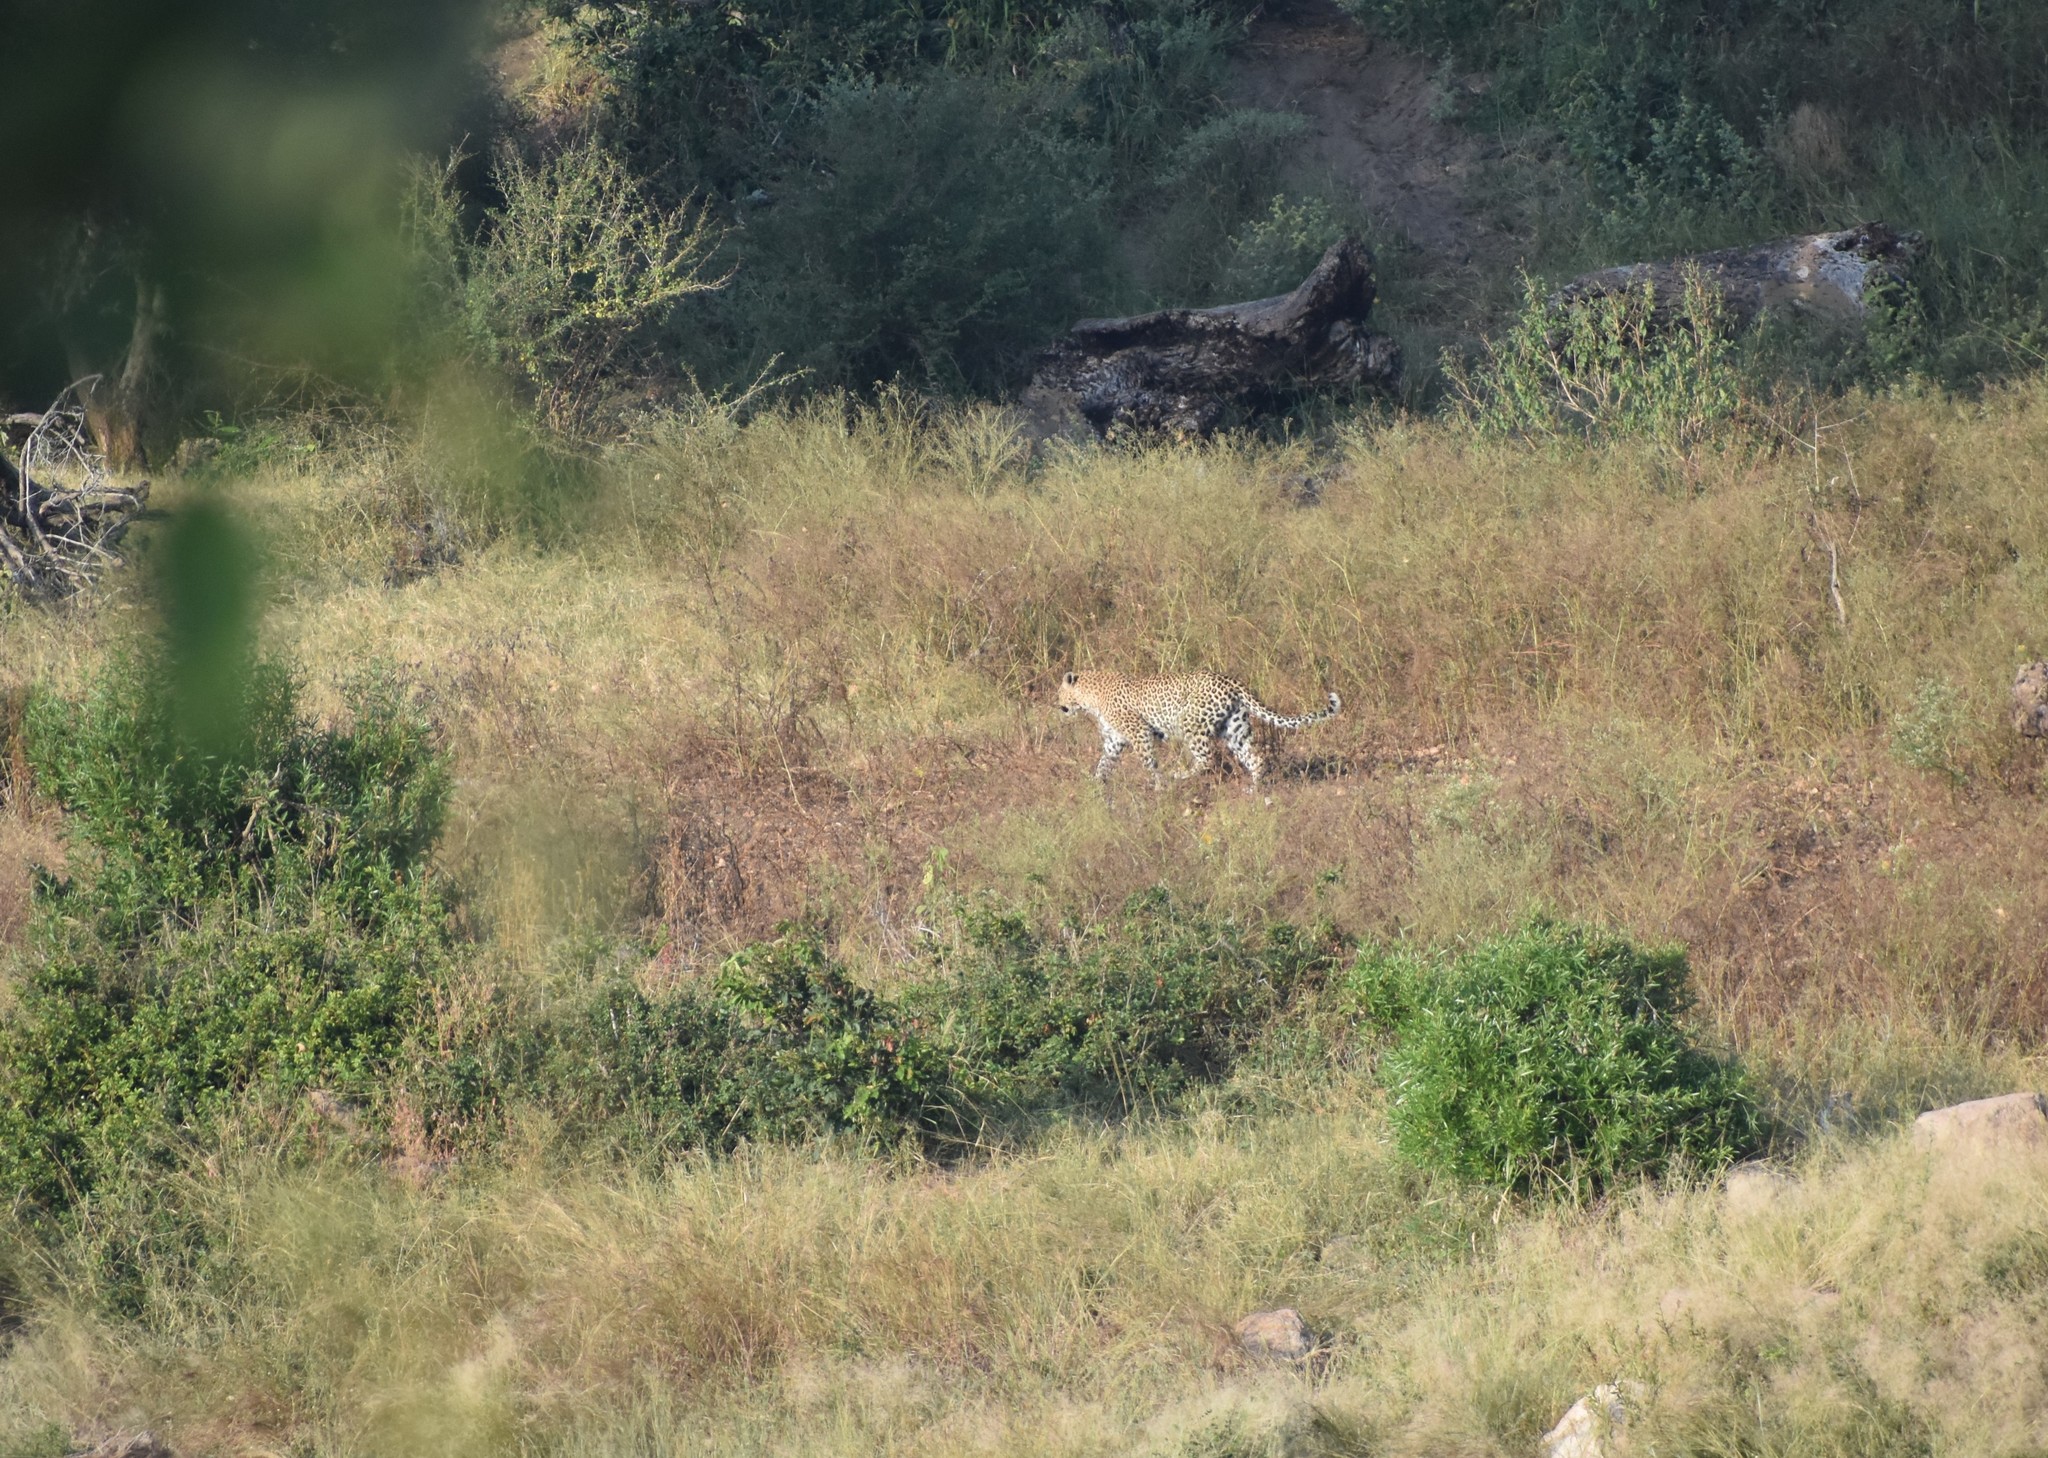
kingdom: Animalia
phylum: Chordata
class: Mammalia
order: Carnivora
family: Felidae
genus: Panthera
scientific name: Panthera pardus
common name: Leopard
